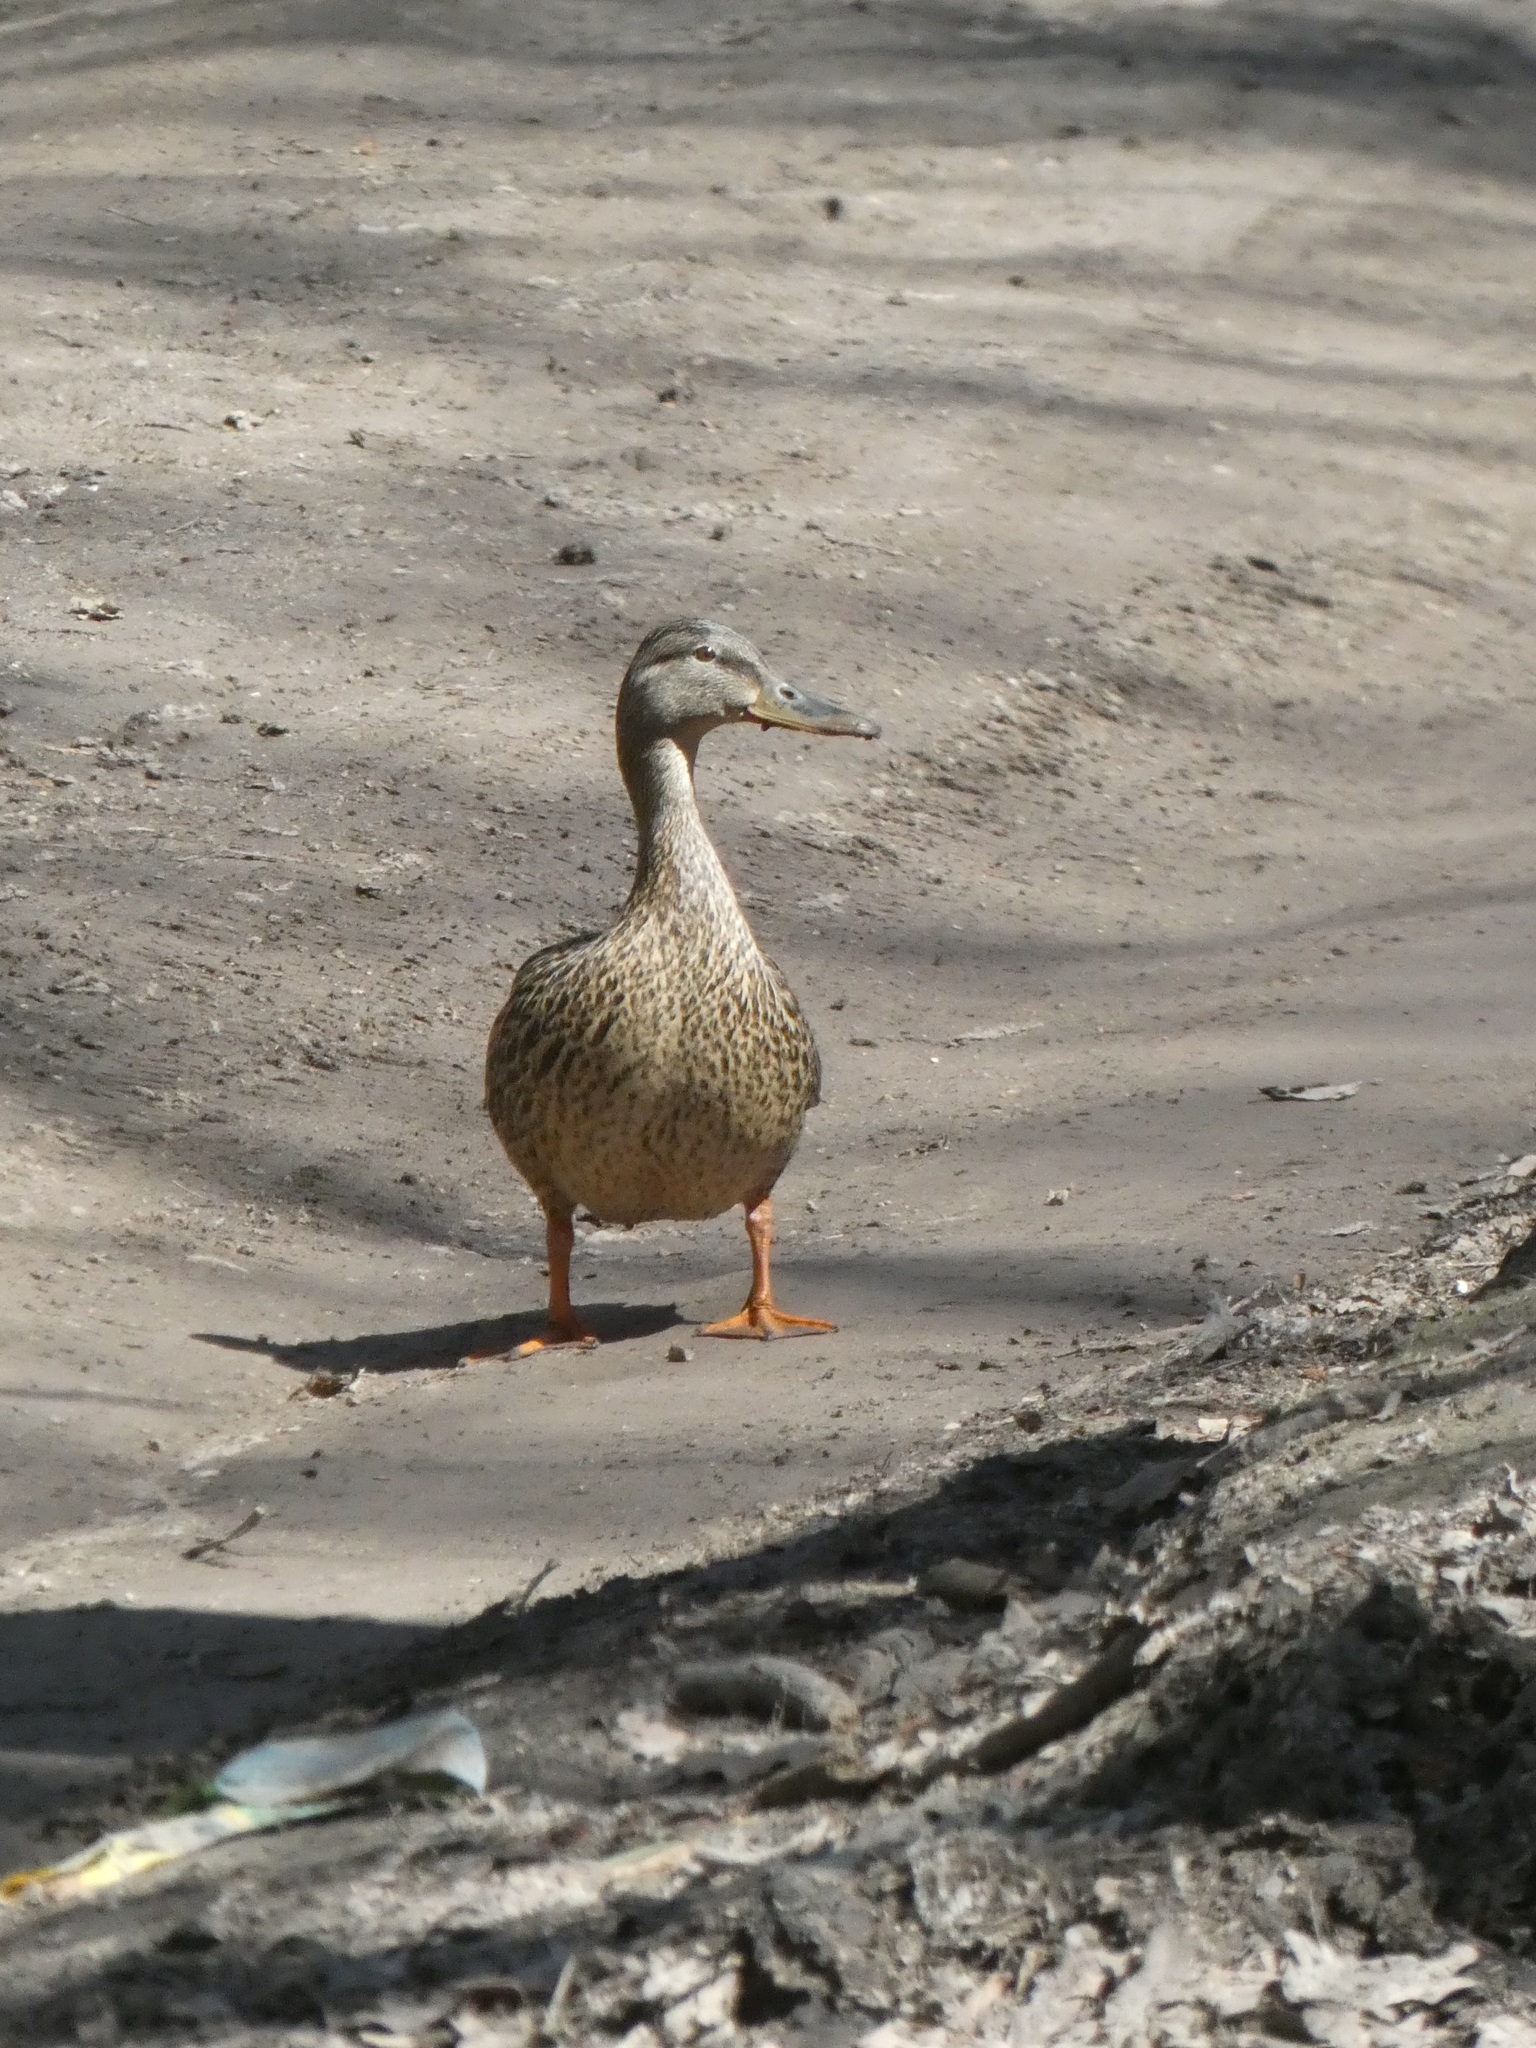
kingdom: Animalia
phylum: Chordata
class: Aves
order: Anseriformes
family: Anatidae
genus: Anas
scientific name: Anas platyrhynchos
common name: Mallard
